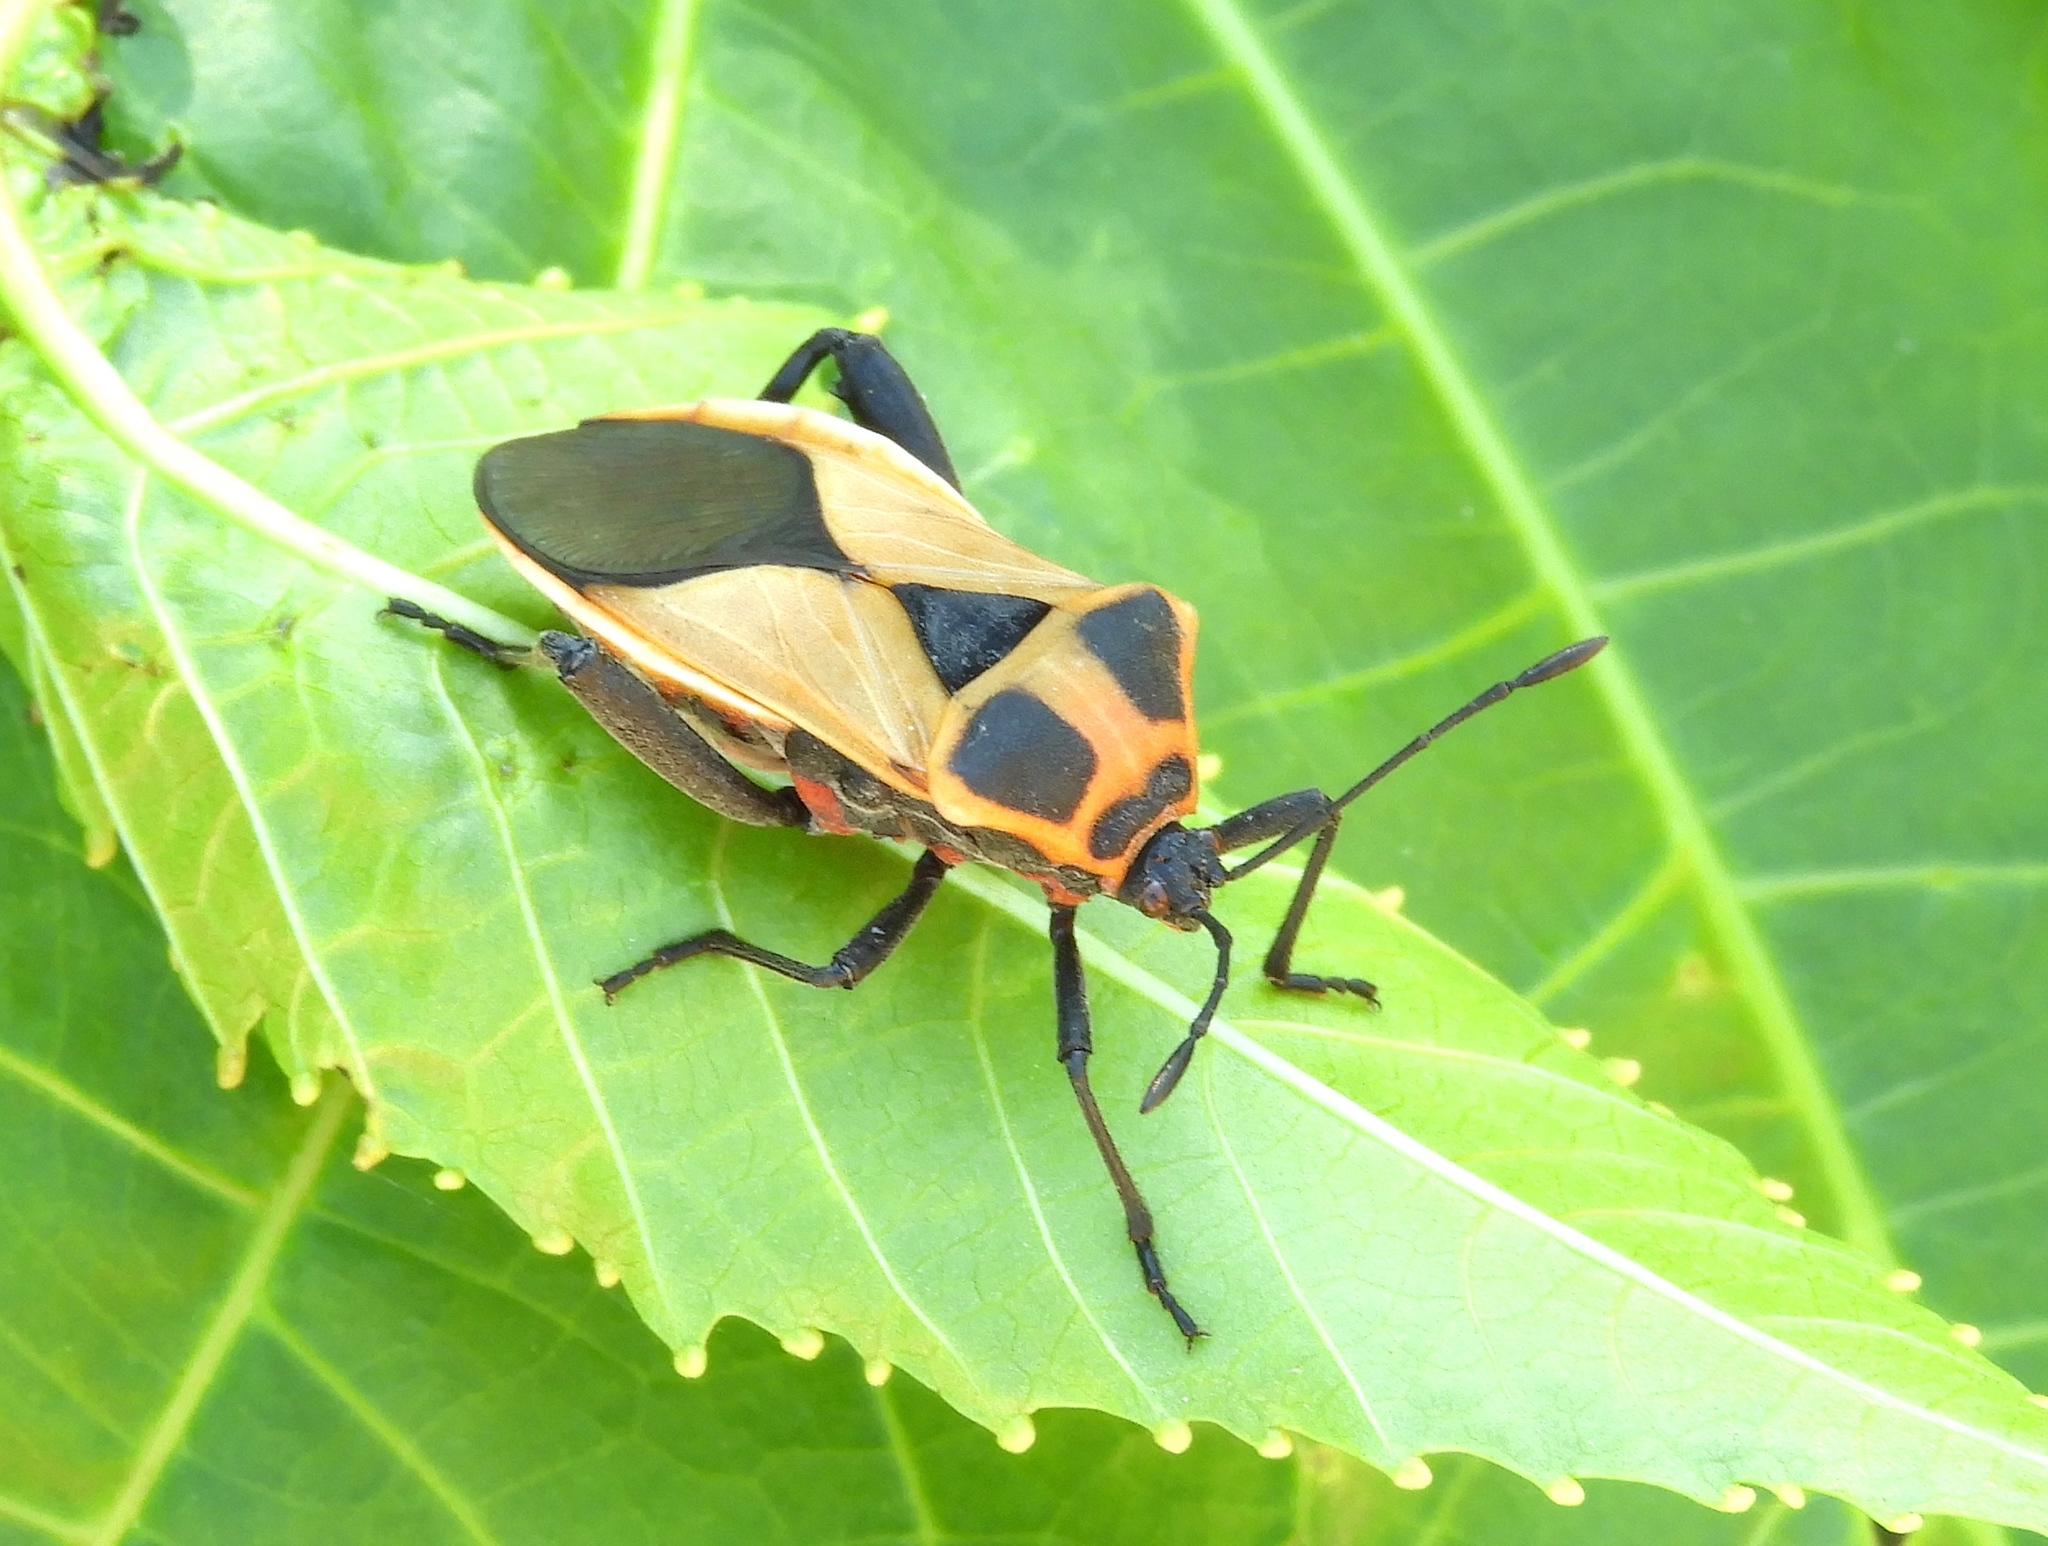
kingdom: Animalia
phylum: Arthropoda
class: Insecta
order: Hemiptera
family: Coreidae
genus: Sagotylus
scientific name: Sagotylus confluens
